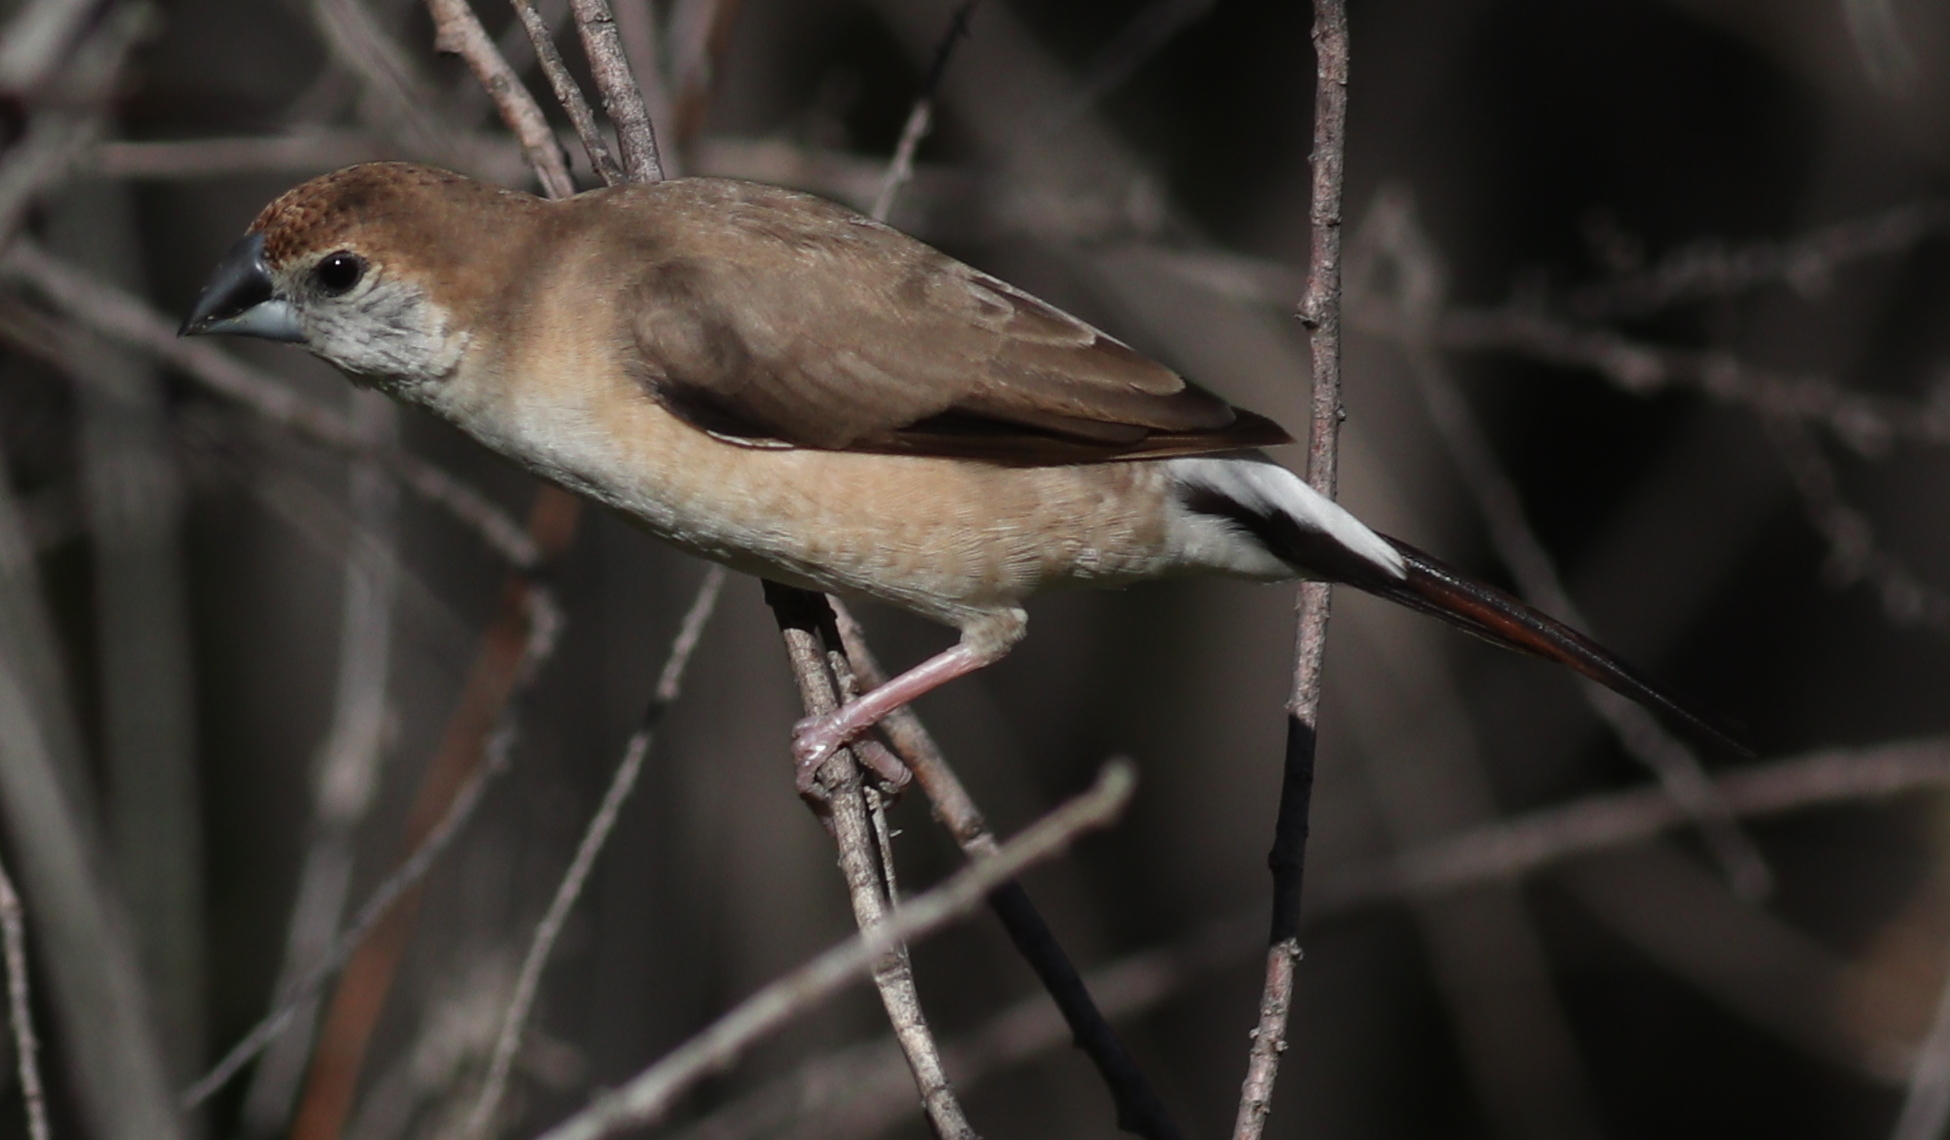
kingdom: Animalia
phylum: Chordata
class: Aves
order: Passeriformes
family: Estrildidae
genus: Euodice
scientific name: Euodice malabarica
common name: Indian silverbill
